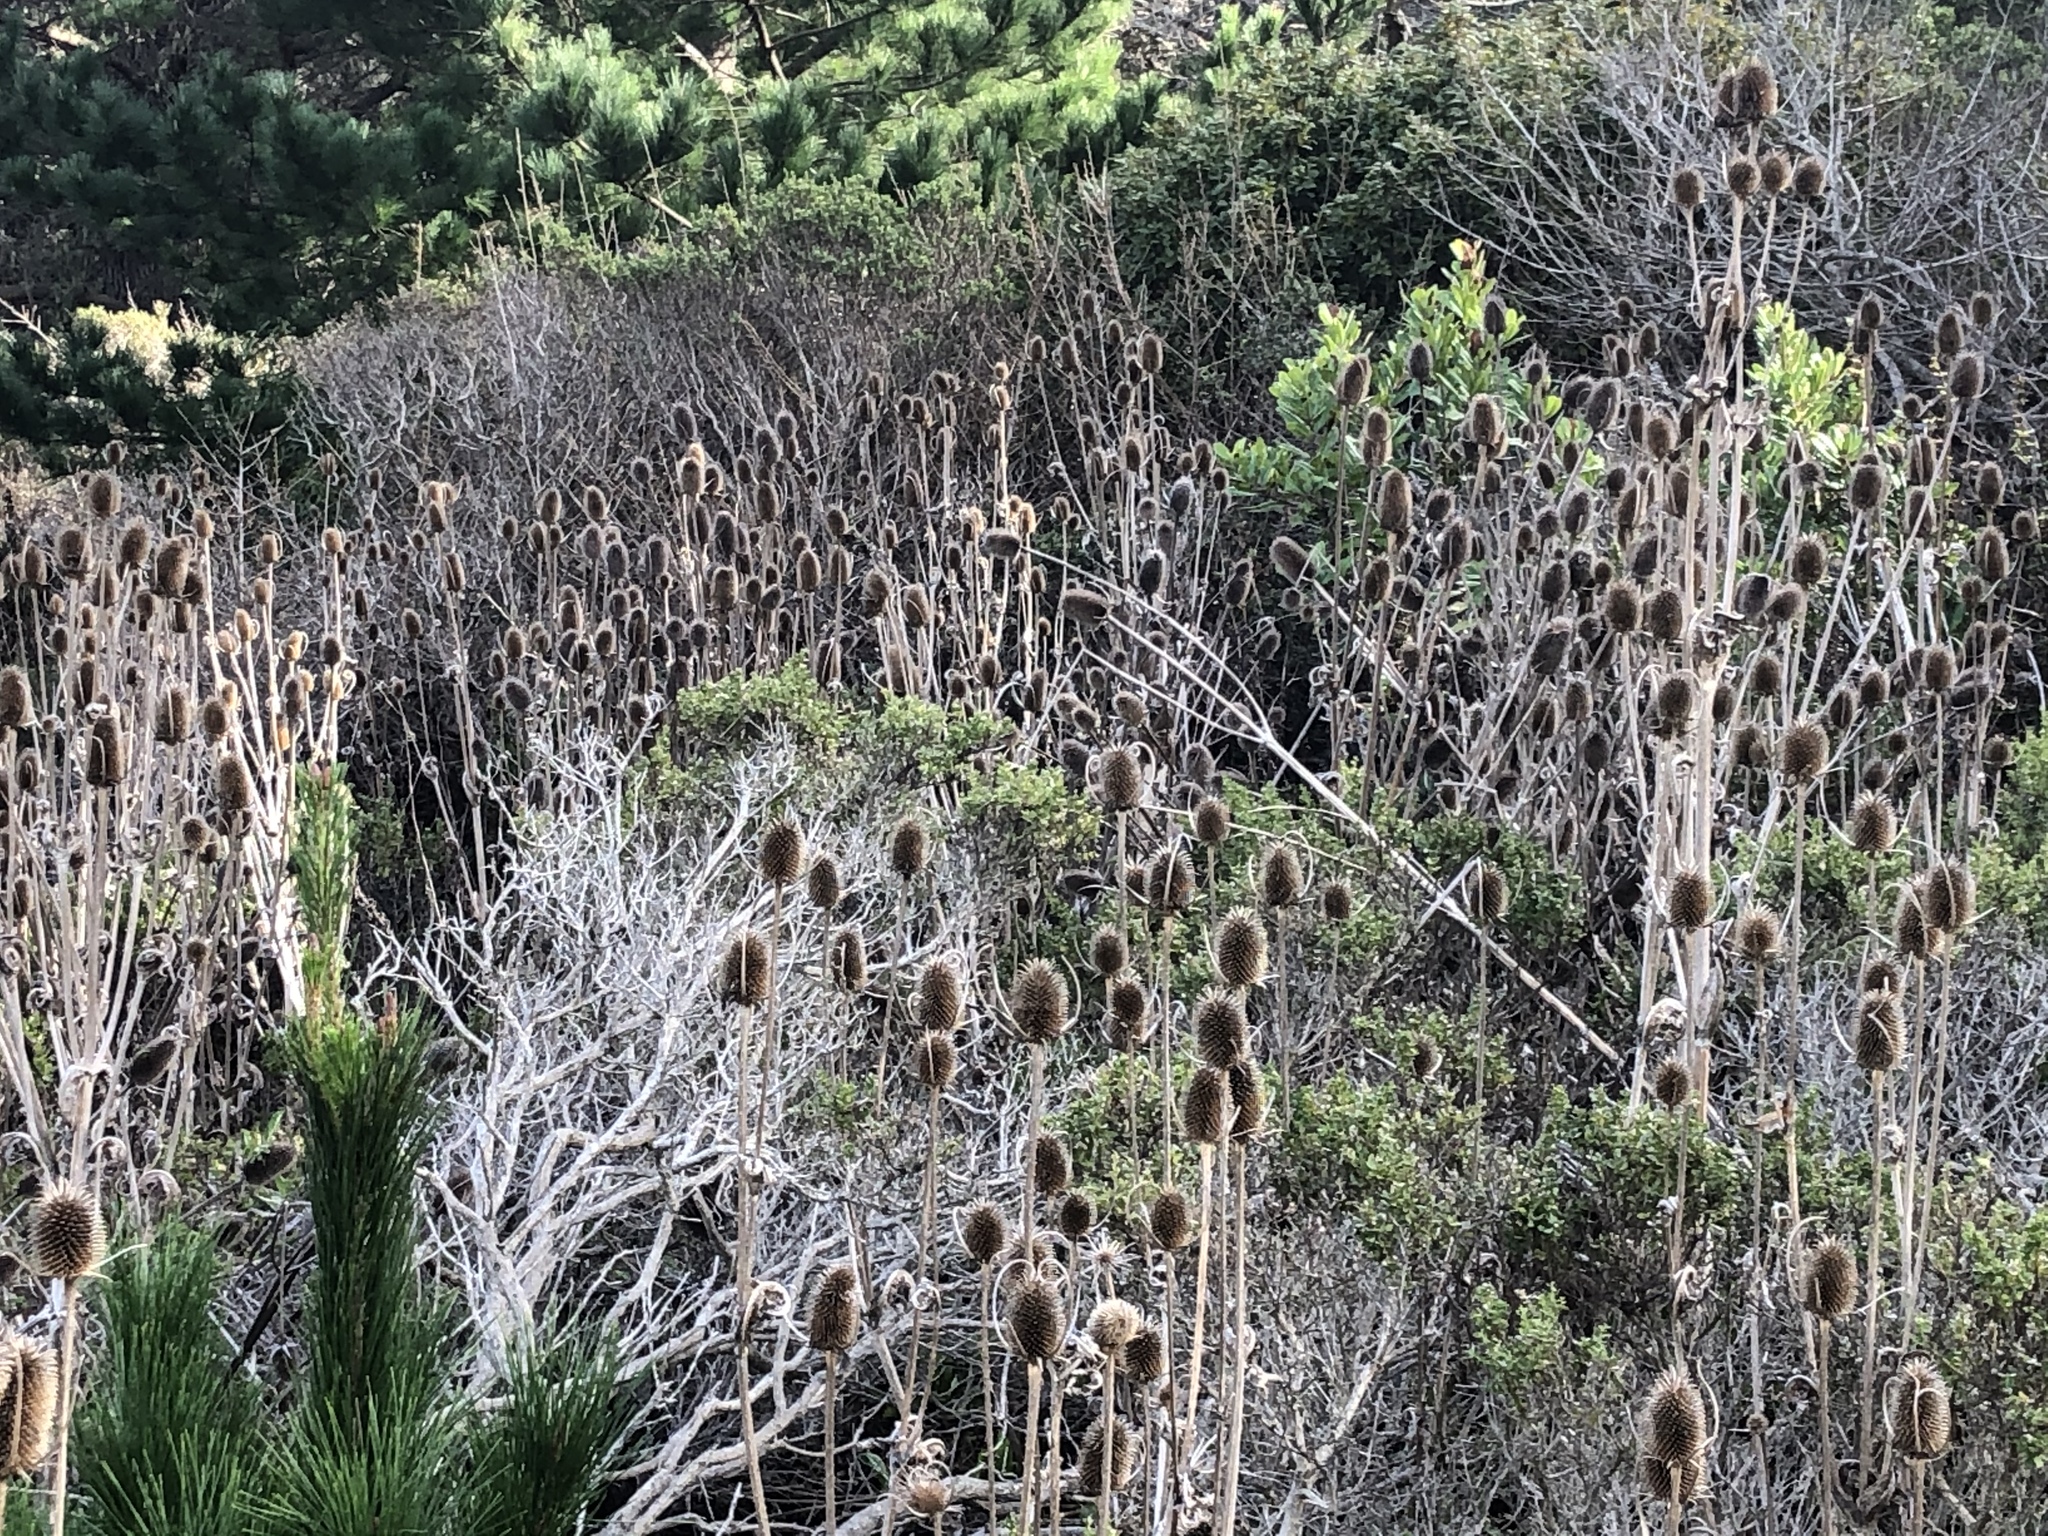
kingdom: Plantae
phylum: Tracheophyta
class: Magnoliopsida
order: Dipsacales
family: Caprifoliaceae
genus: Dipsacus
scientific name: Dipsacus sativus
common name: Fuller's teasel
